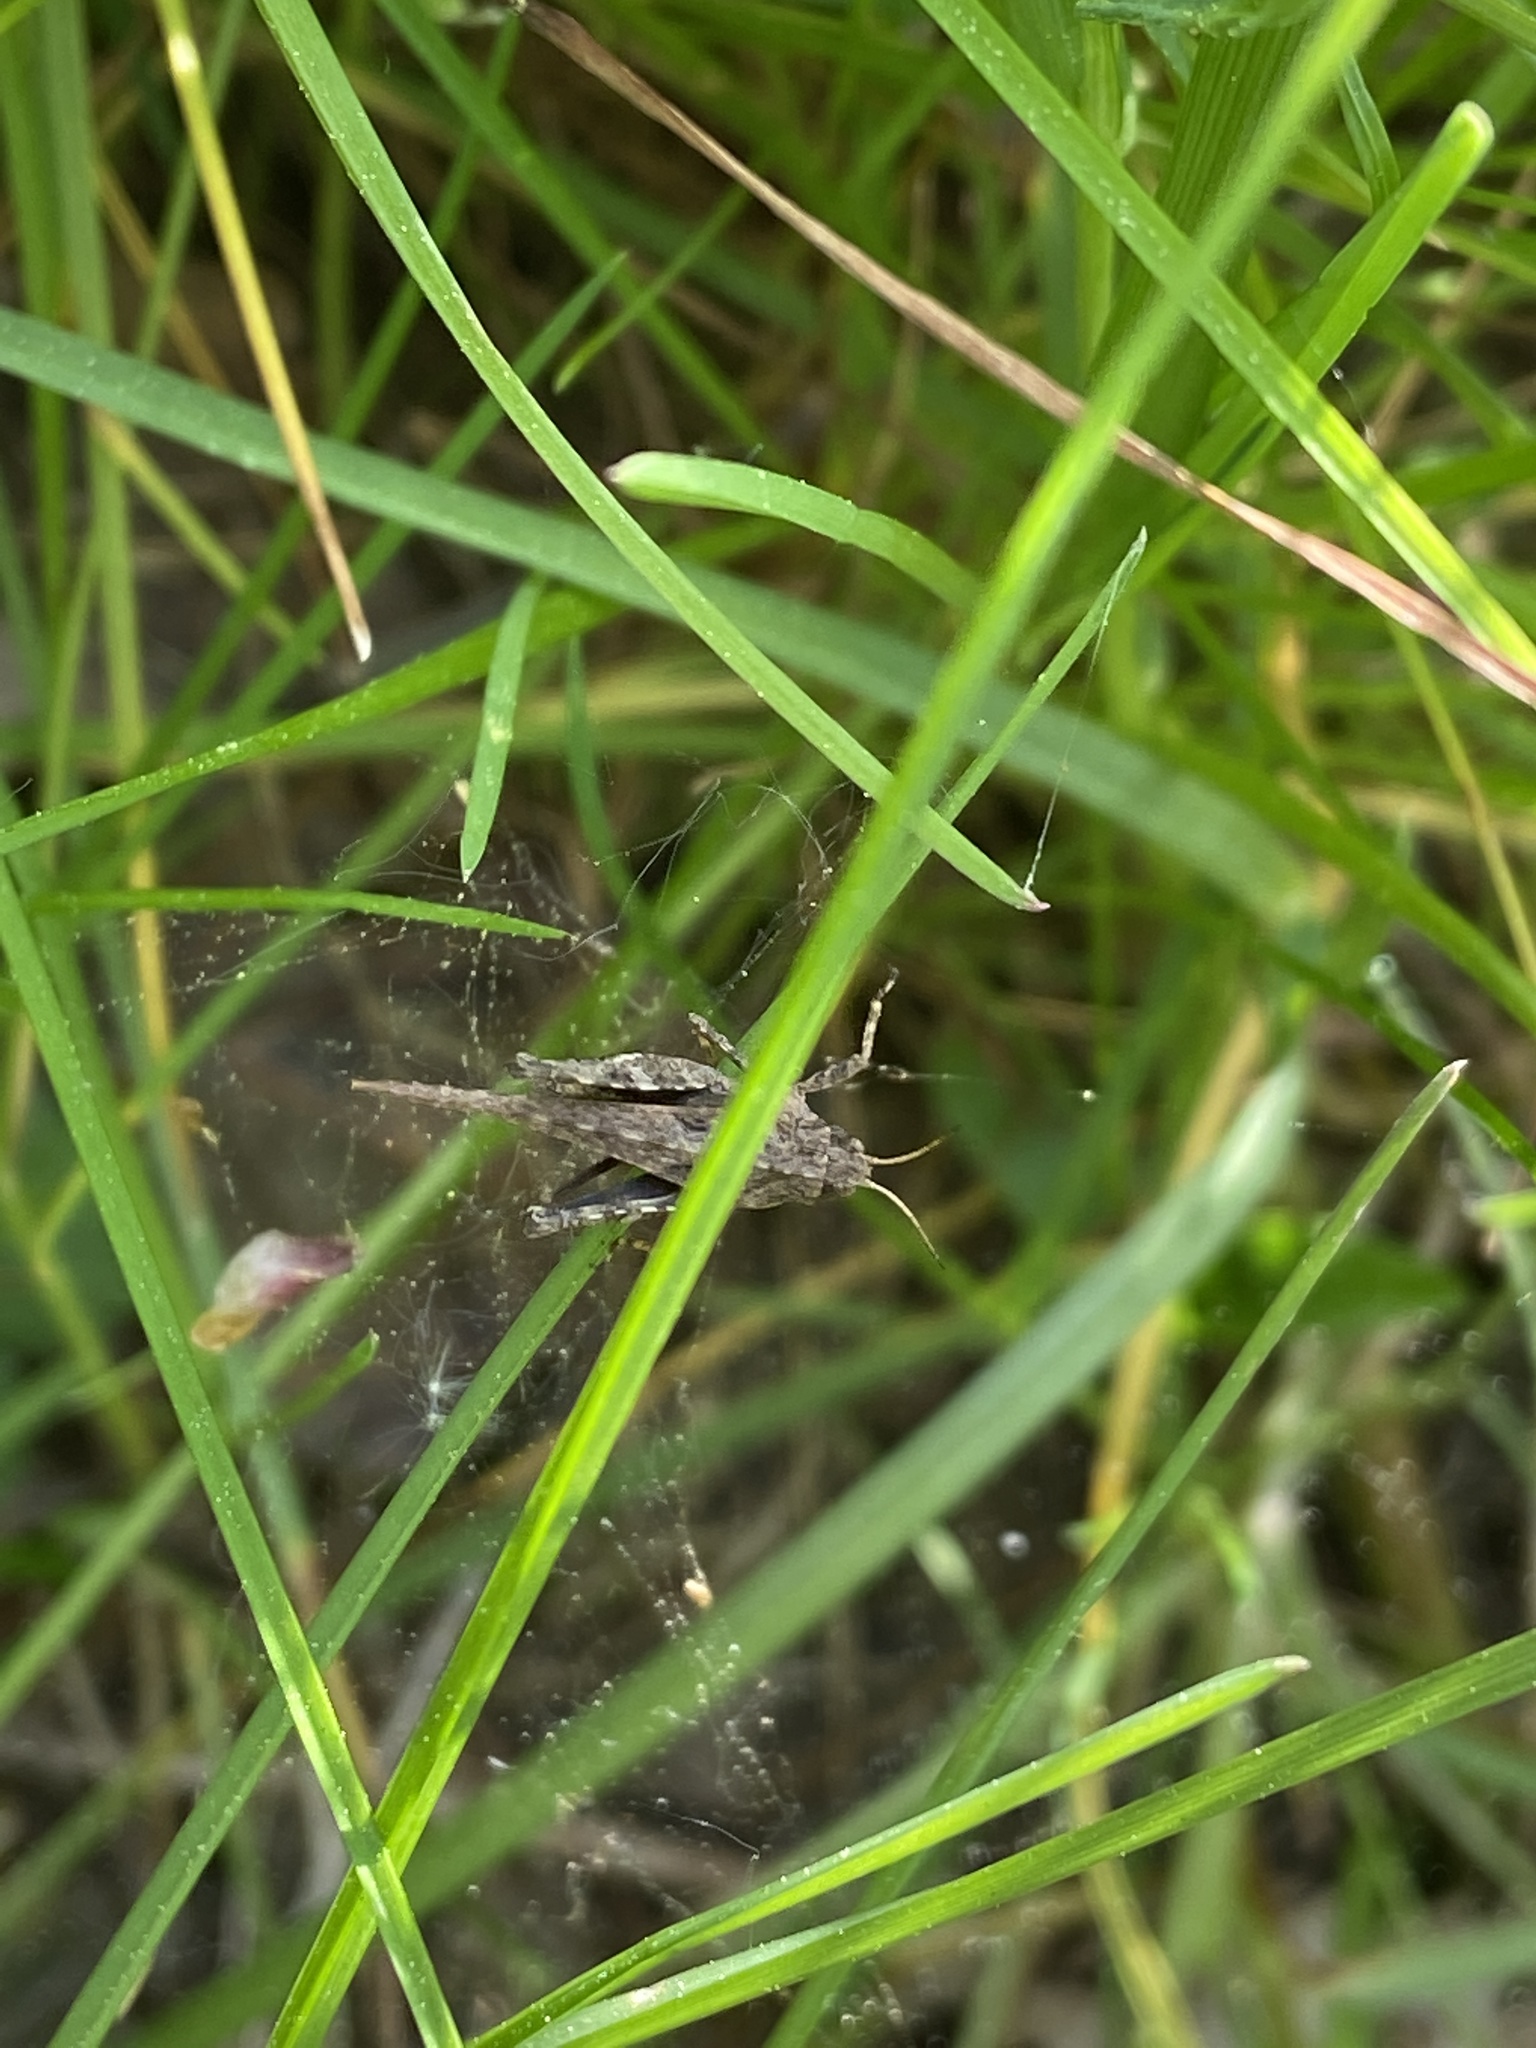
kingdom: Animalia
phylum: Arthropoda
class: Insecta
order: Orthoptera
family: Tetrigidae
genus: Tetrix
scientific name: Tetrix ceperoi
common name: Cepero's ground-hopper
